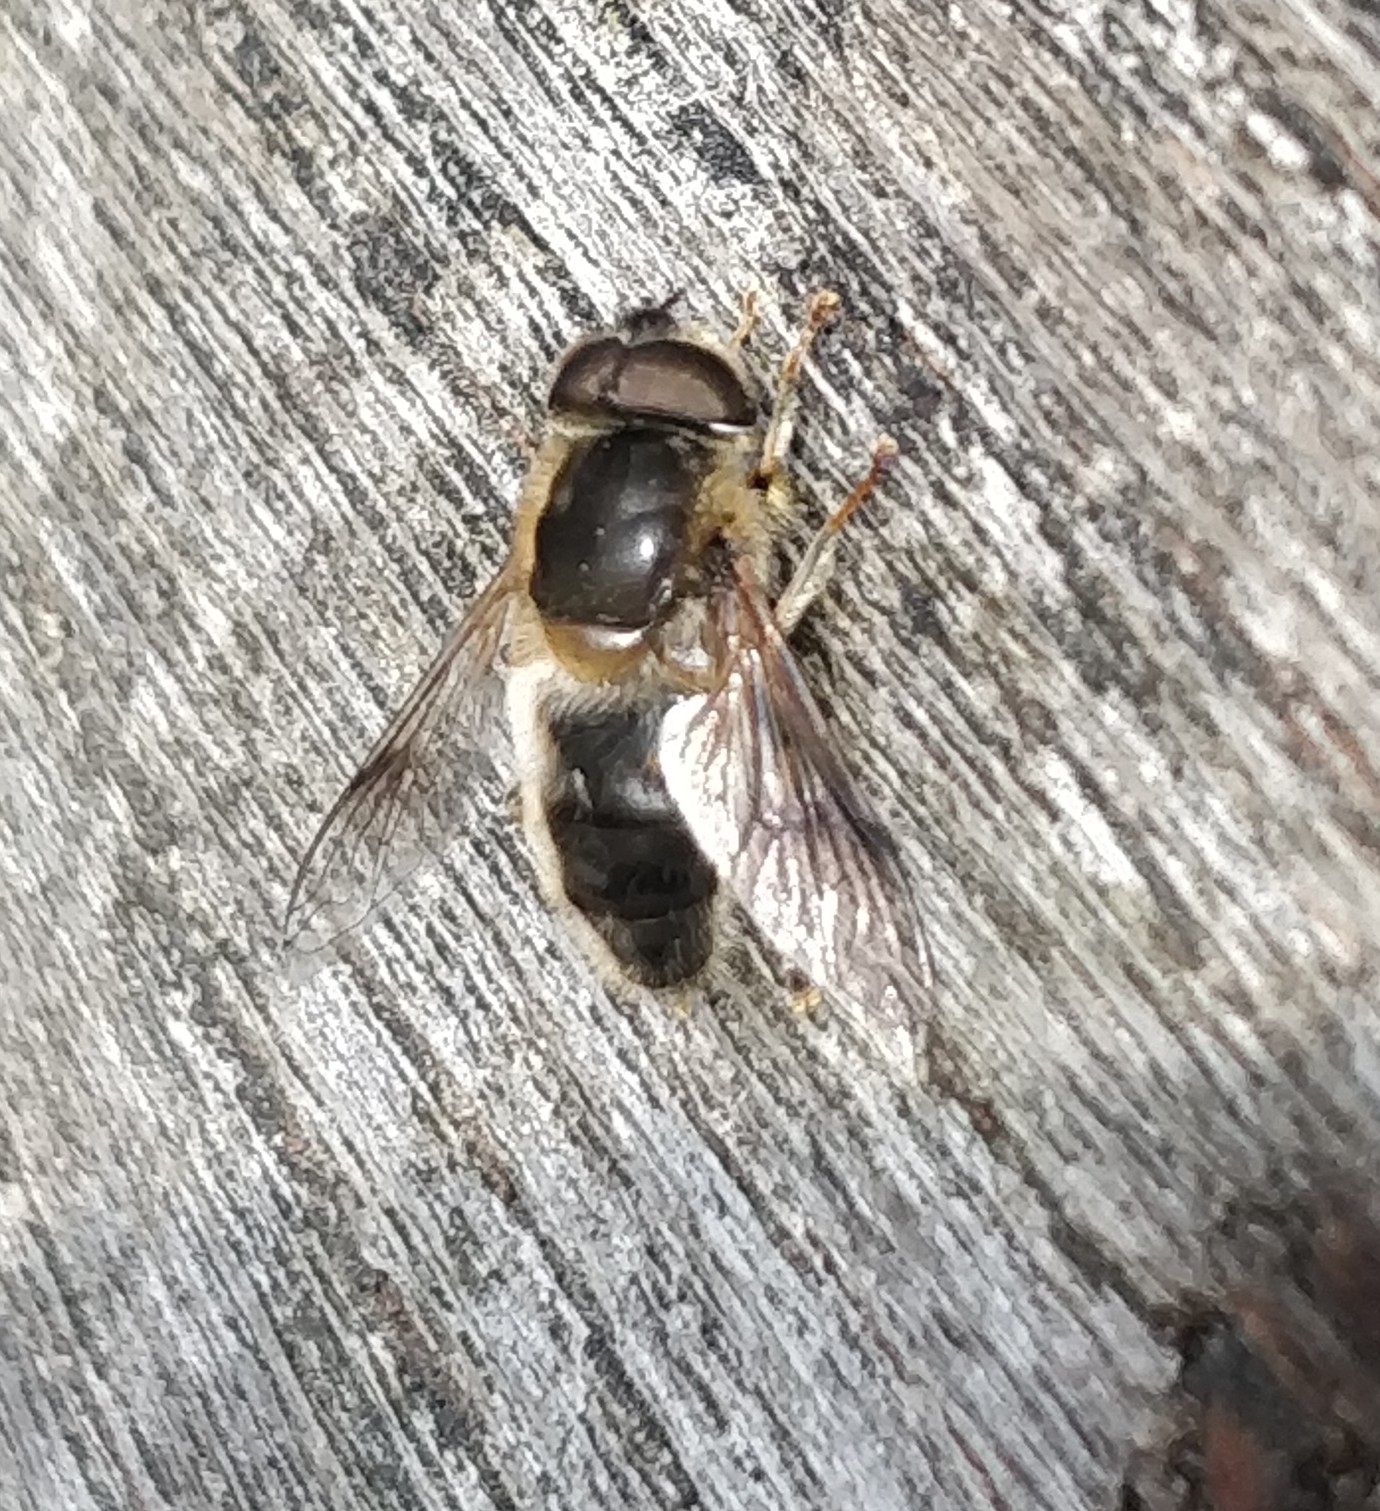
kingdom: Animalia
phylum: Arthropoda
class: Insecta
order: Diptera
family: Syrphidae
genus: Eristalis
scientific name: Eristalis pertinax
